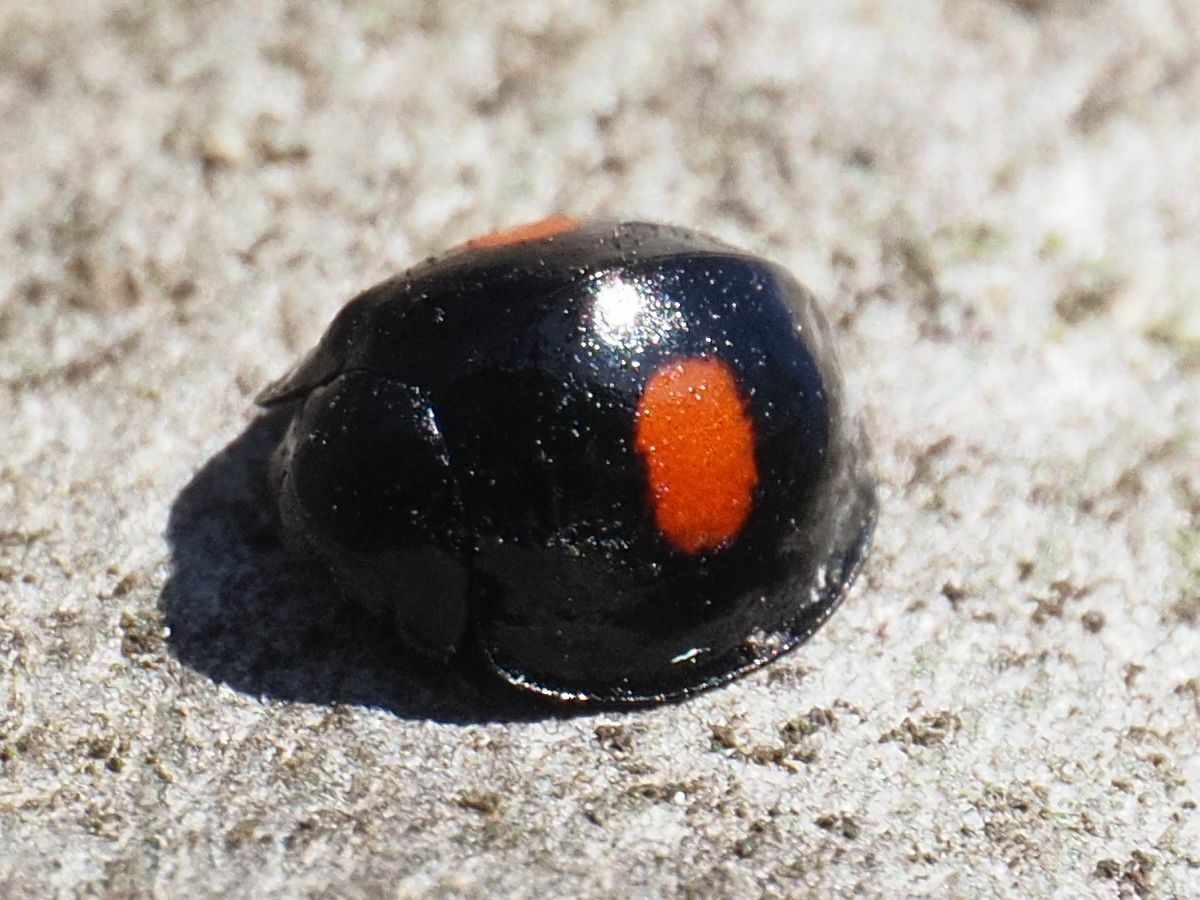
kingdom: Animalia
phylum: Arthropoda
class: Insecta
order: Coleoptera
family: Coccinellidae
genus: Chilocorus
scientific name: Chilocorus renipustulatus
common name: Kidney-spot ladybird
